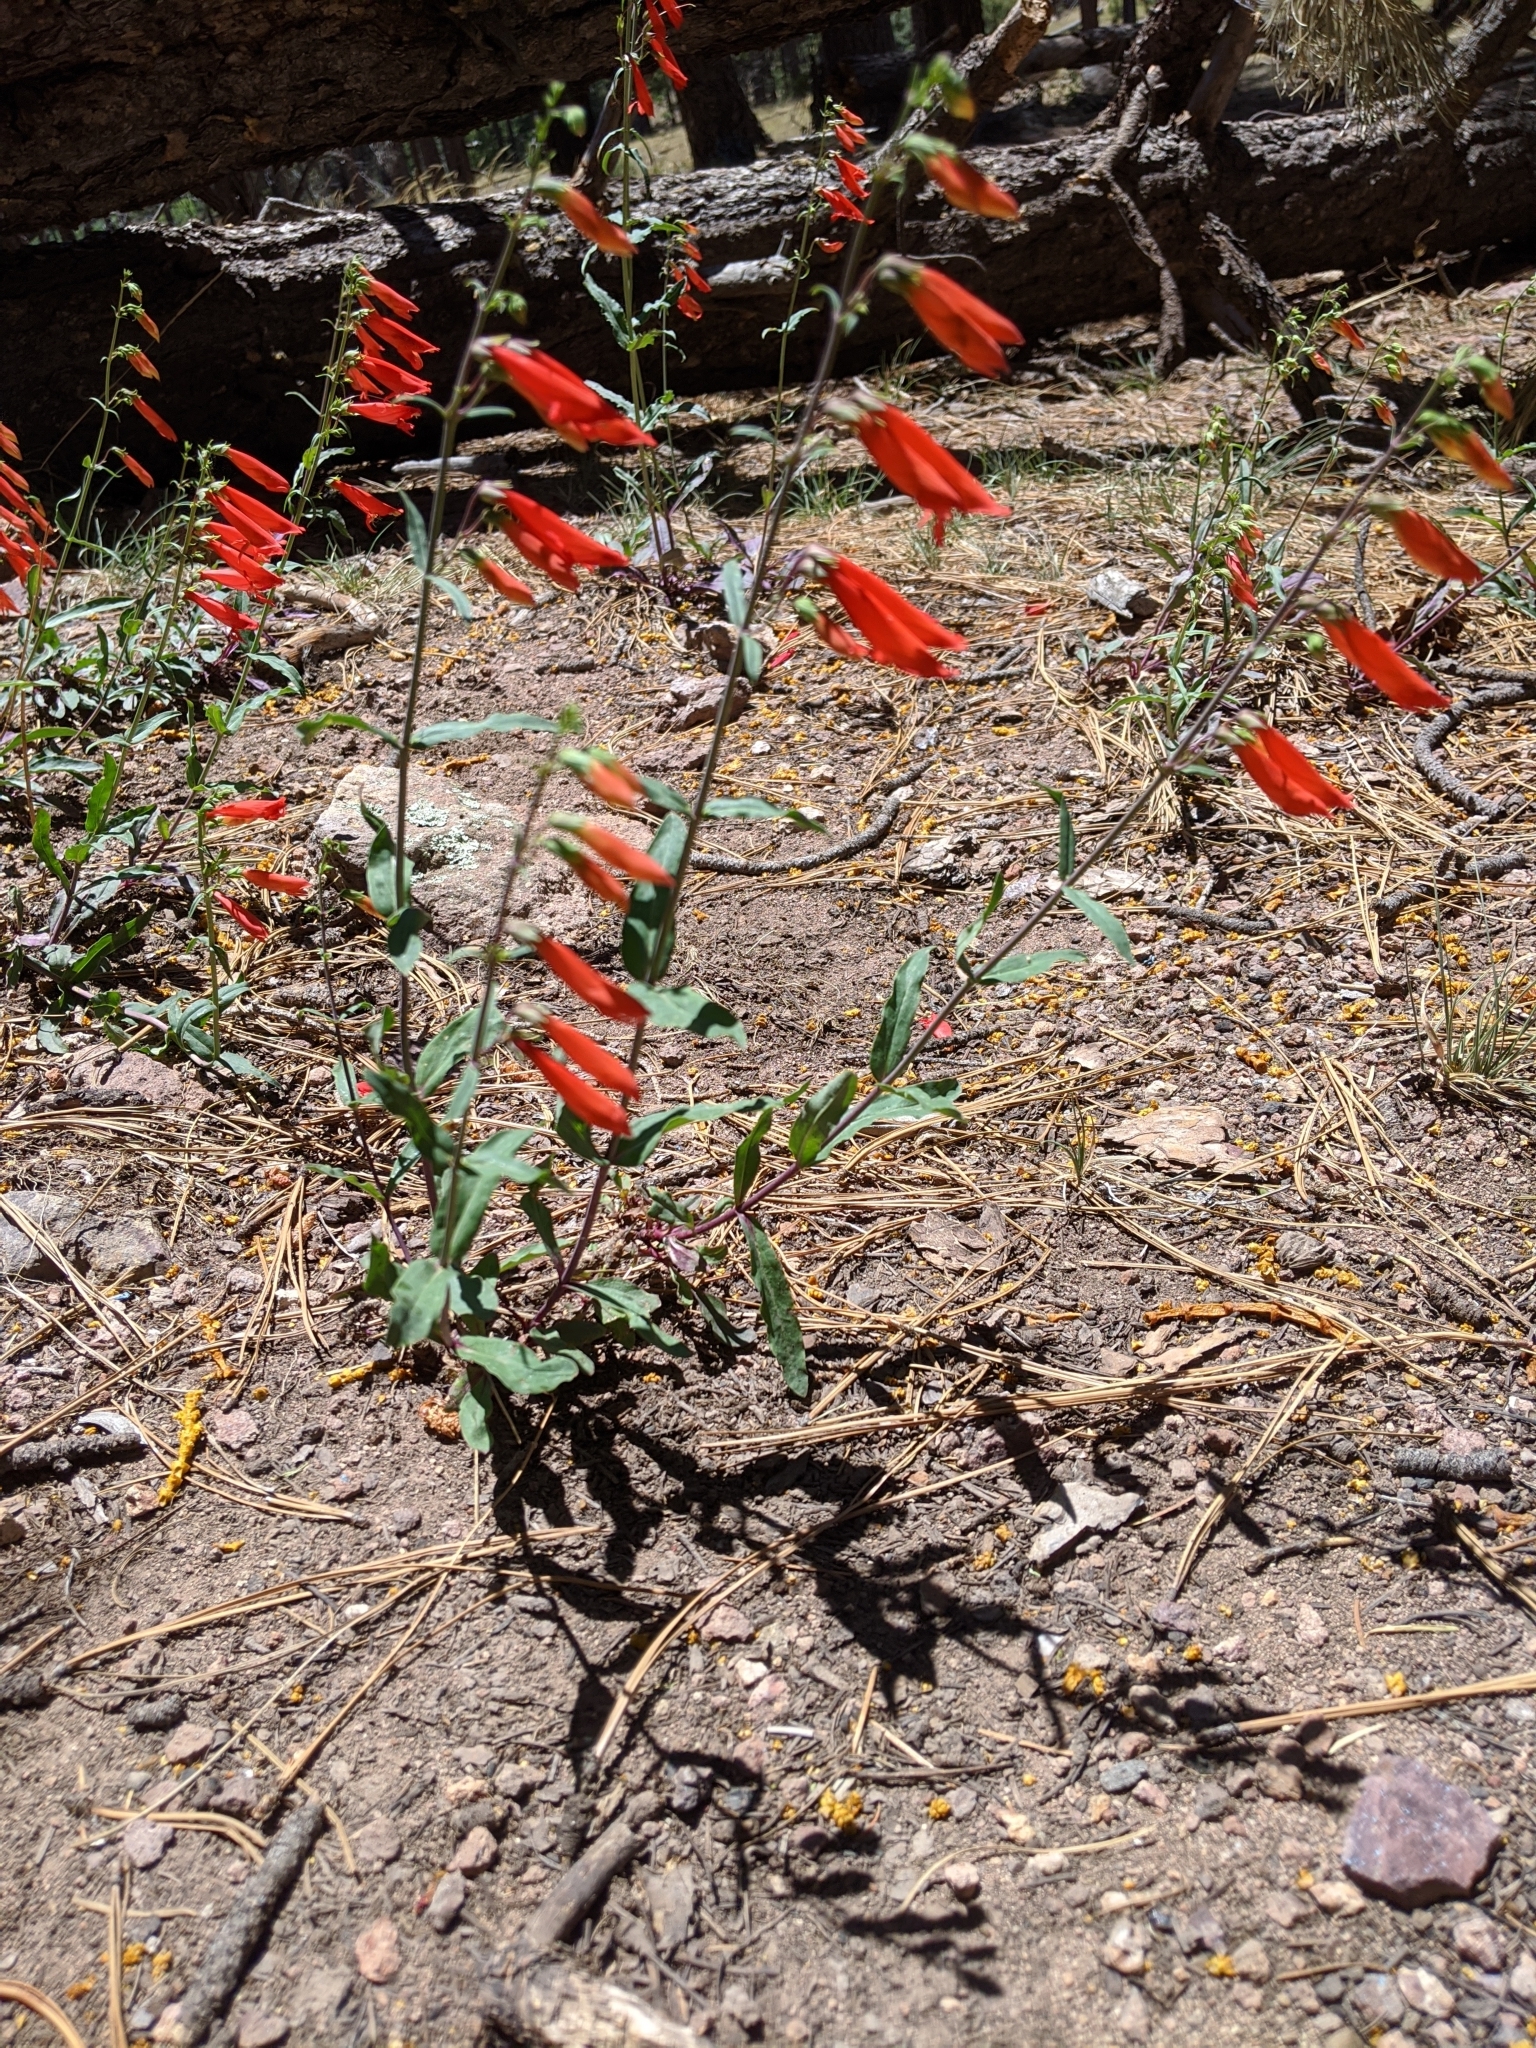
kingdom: Plantae
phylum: Tracheophyta
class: Magnoliopsida
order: Lamiales
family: Plantaginaceae
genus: Penstemon
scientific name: Penstemon barbatus
